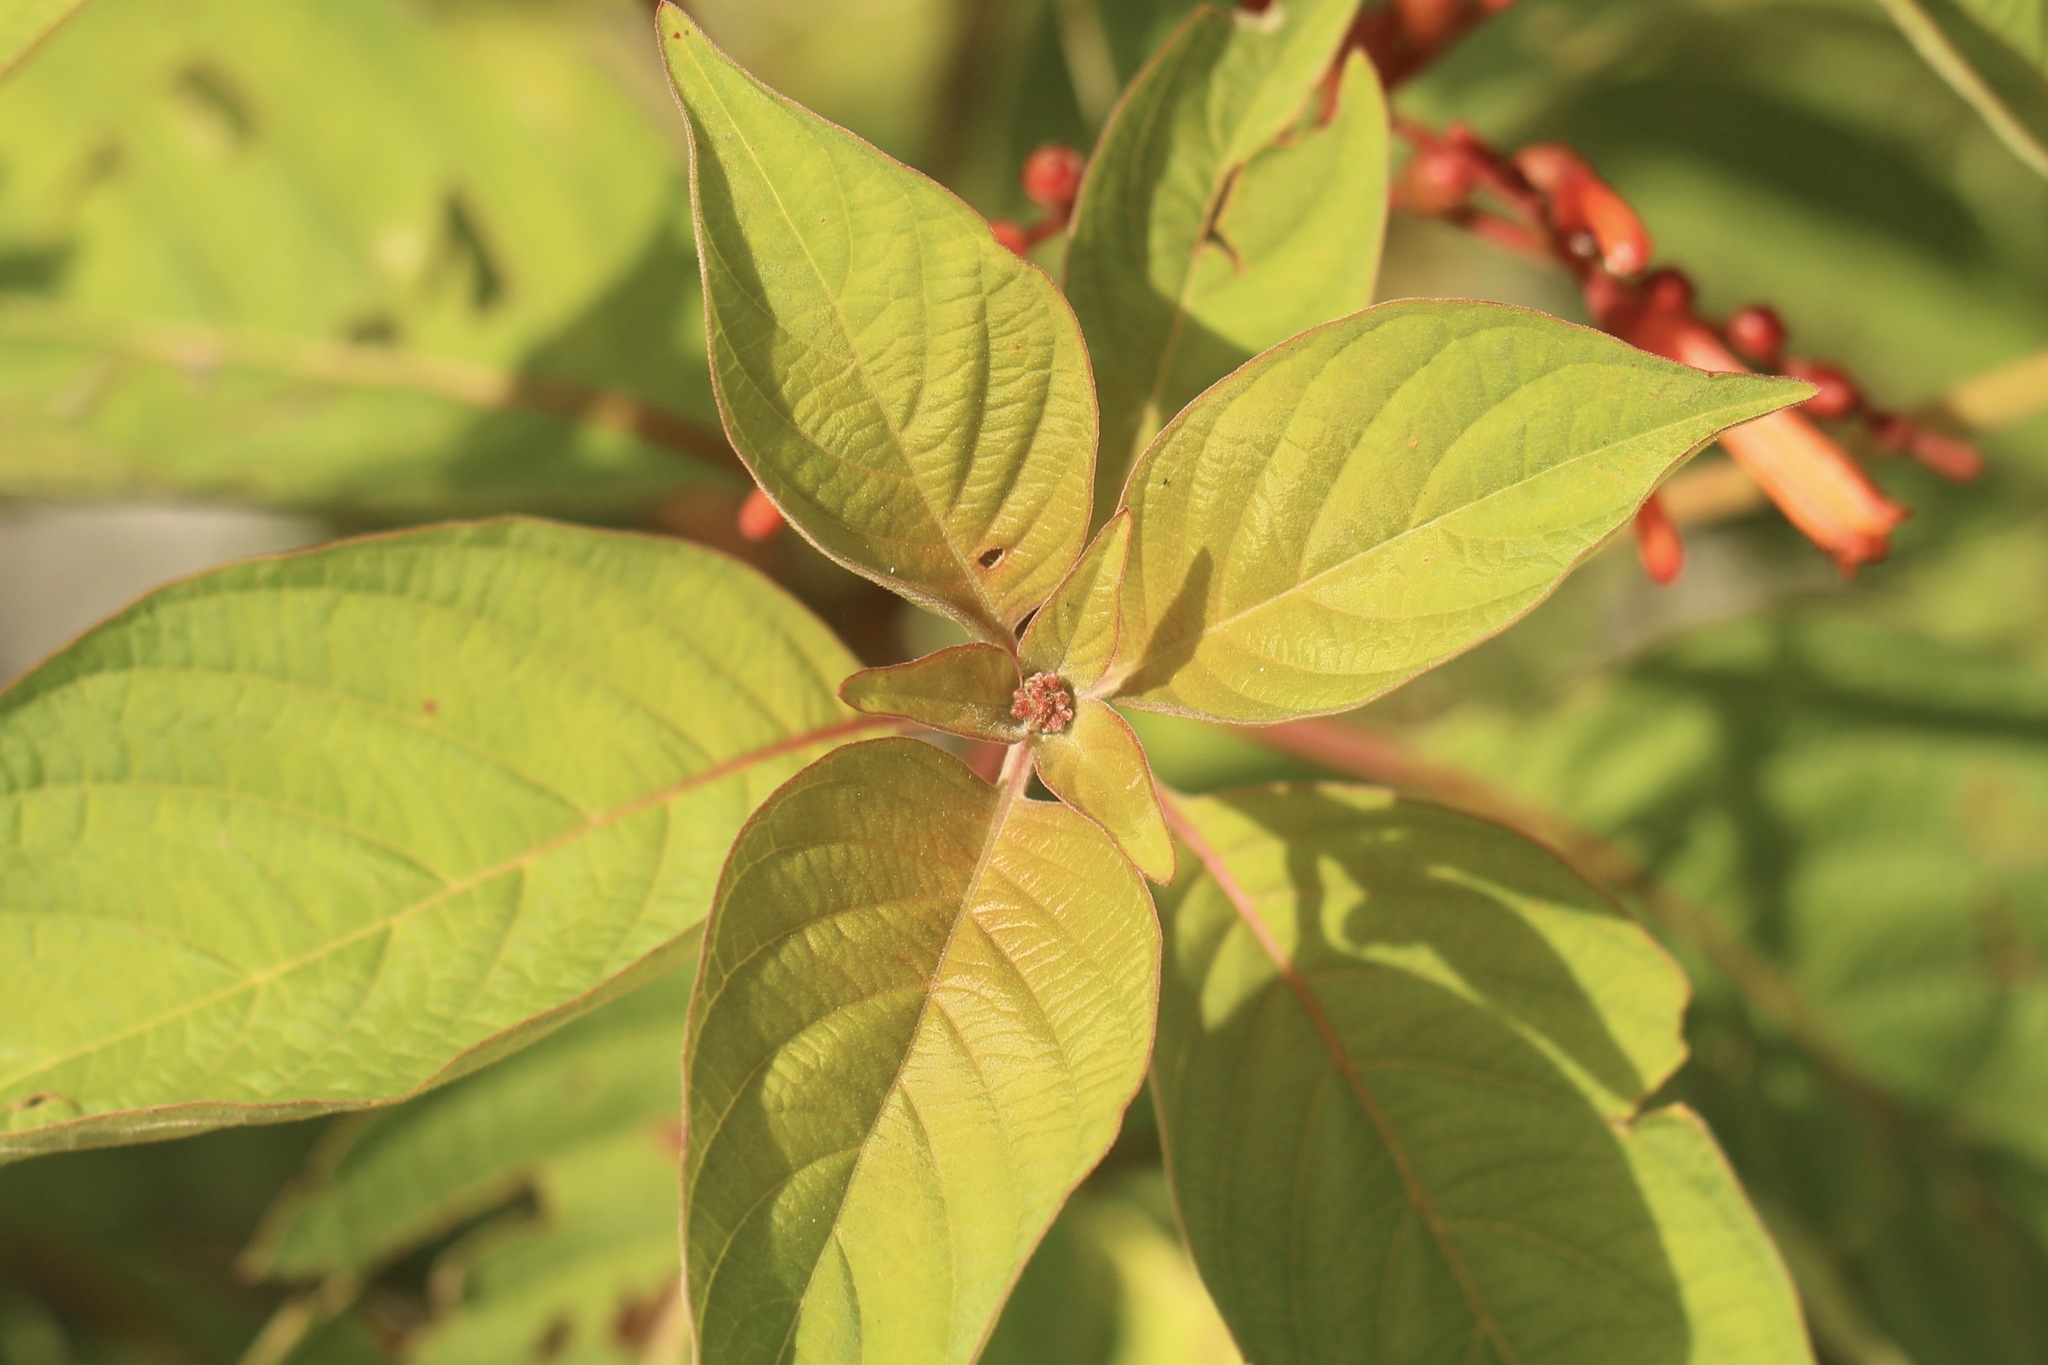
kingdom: Plantae
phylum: Tracheophyta
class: Magnoliopsida
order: Gentianales
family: Rubiaceae
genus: Hamelia
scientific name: Hamelia patens
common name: Redhead
